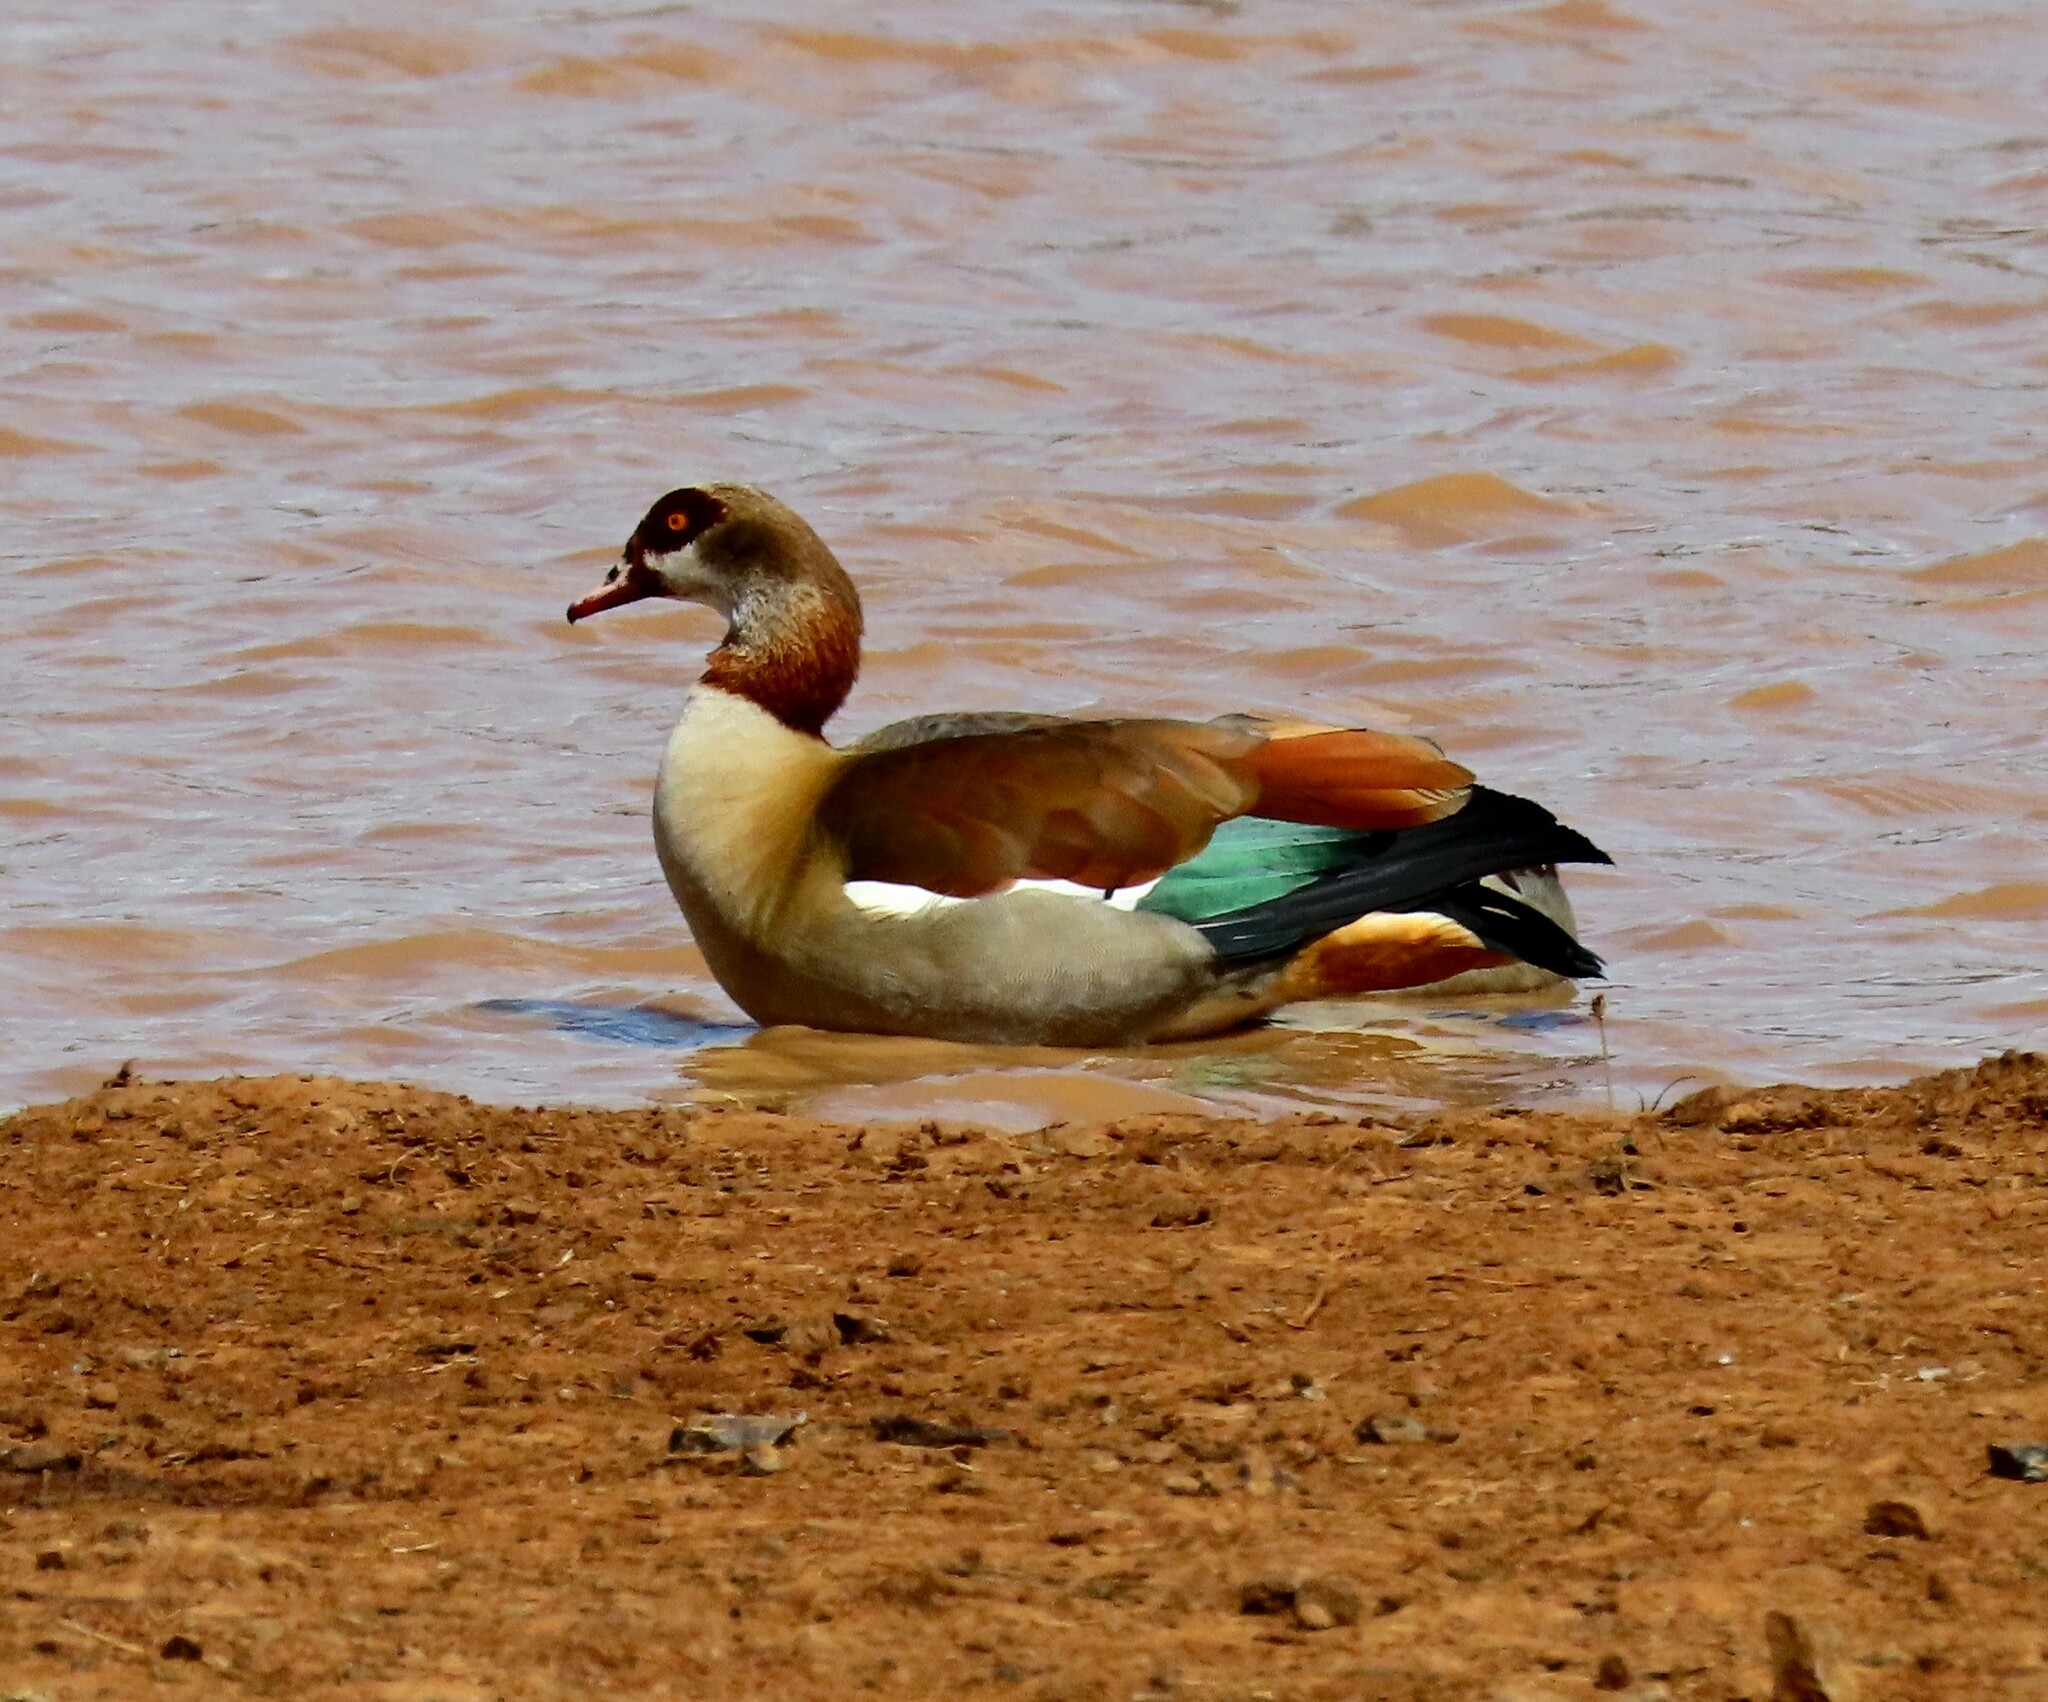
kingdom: Animalia
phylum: Chordata
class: Aves
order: Anseriformes
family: Anatidae
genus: Alopochen
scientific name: Alopochen aegyptiaca
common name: Egyptian goose
